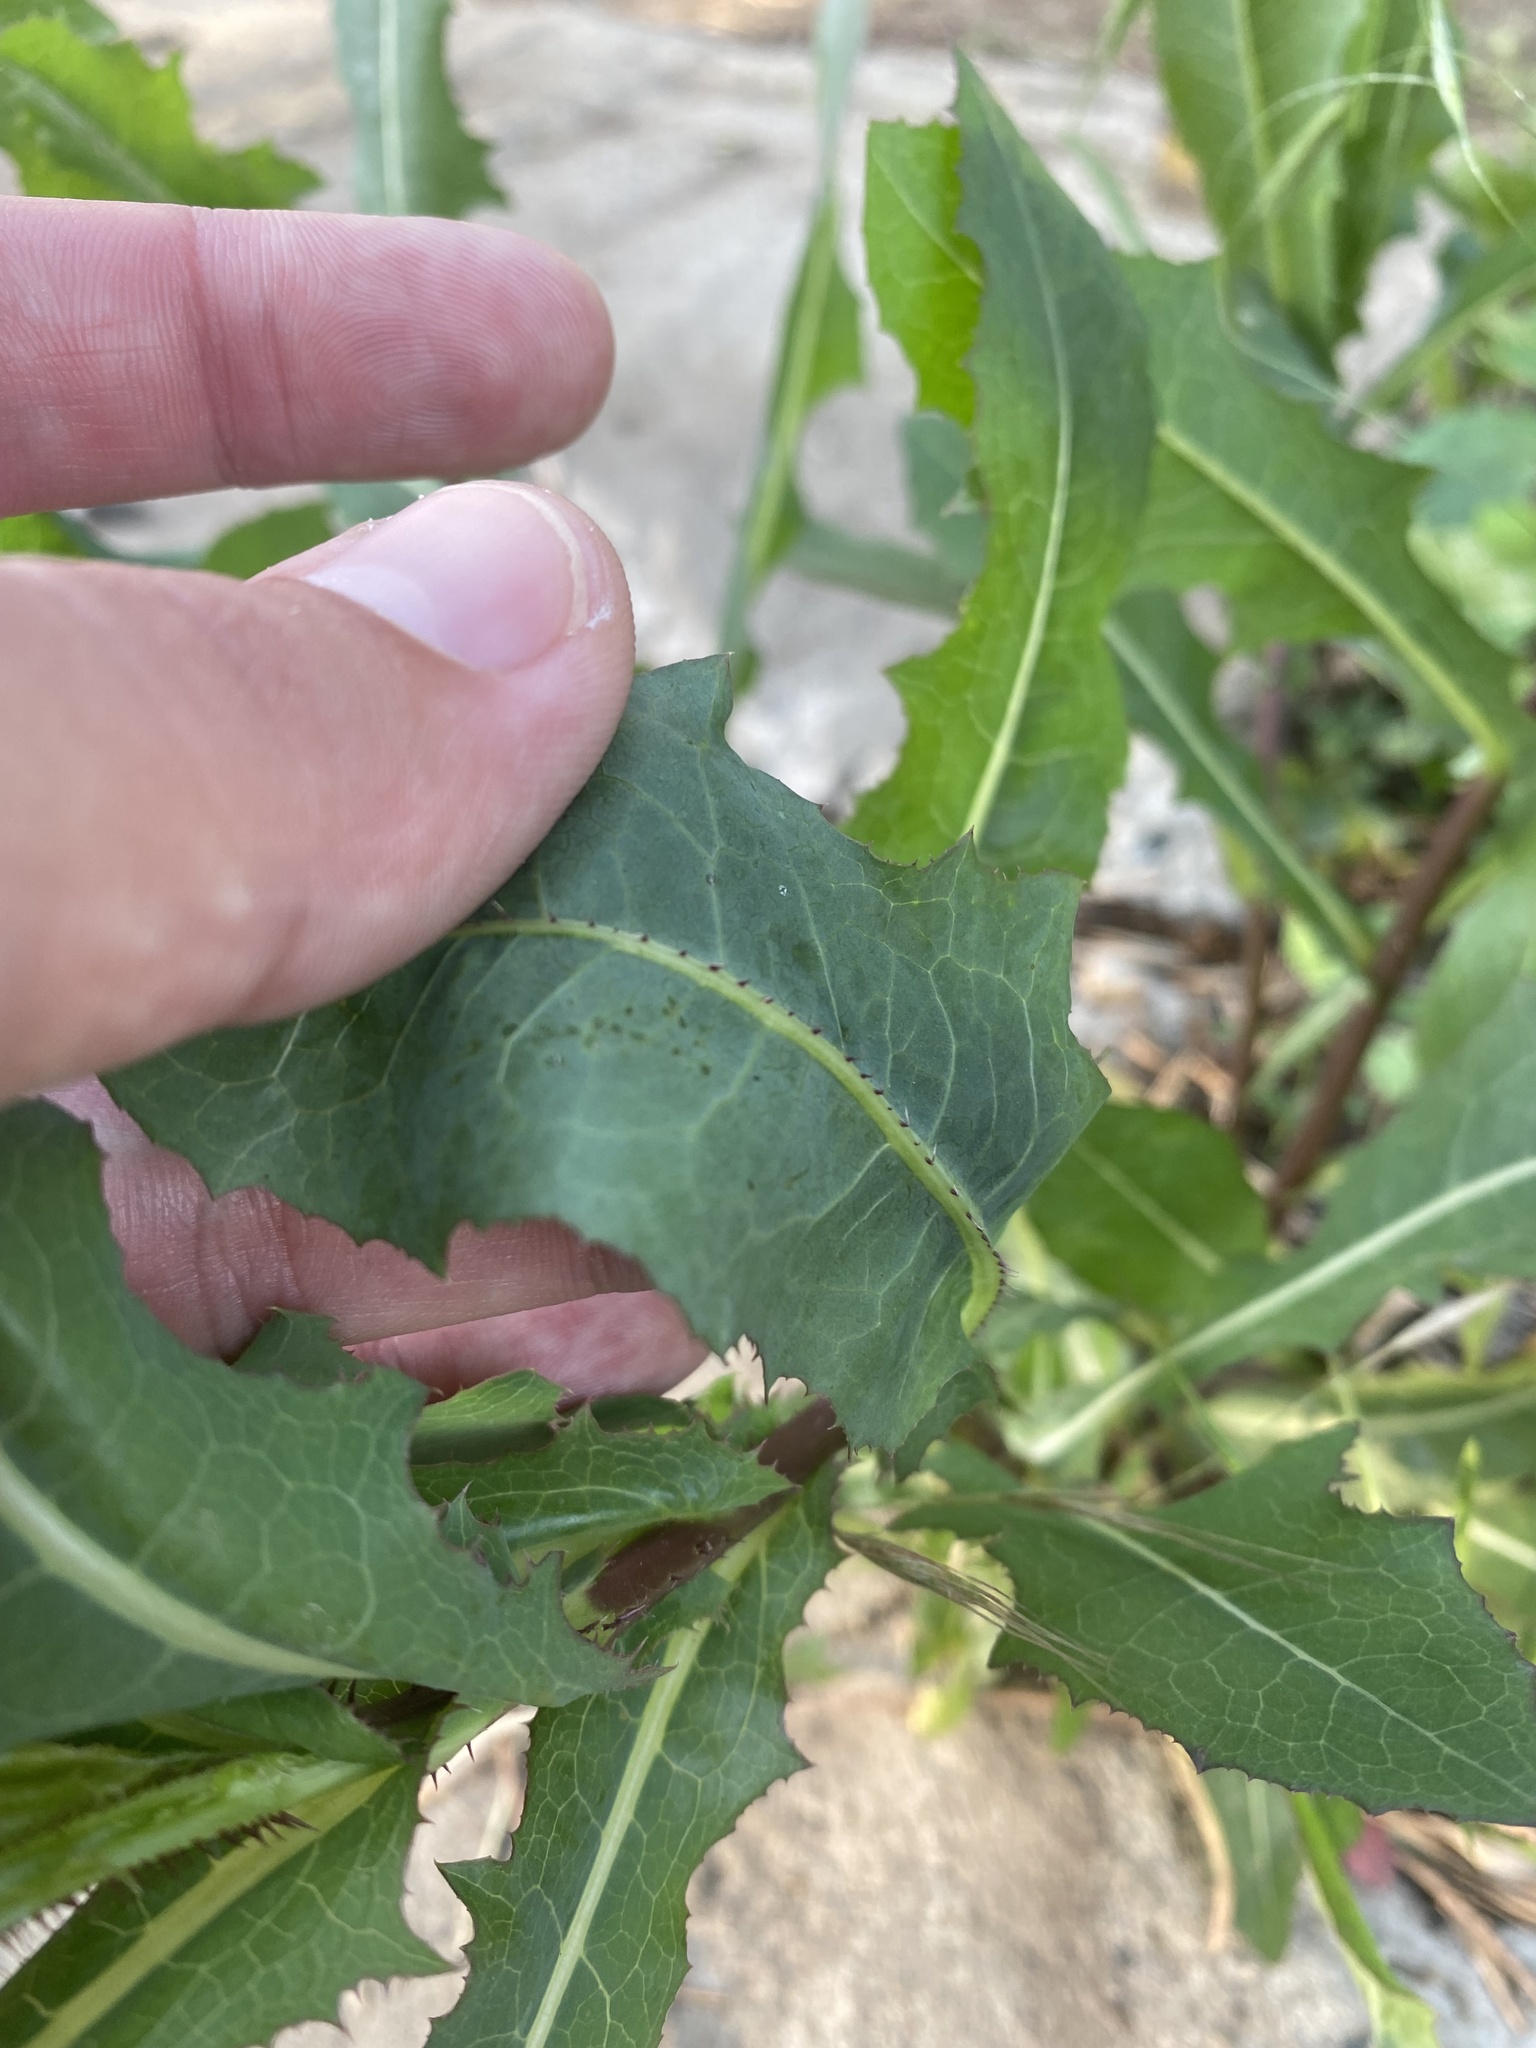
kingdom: Plantae
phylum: Tracheophyta
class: Magnoliopsida
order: Asterales
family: Asteraceae
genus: Lactuca
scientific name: Lactuca serriola
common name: Prickly lettuce
